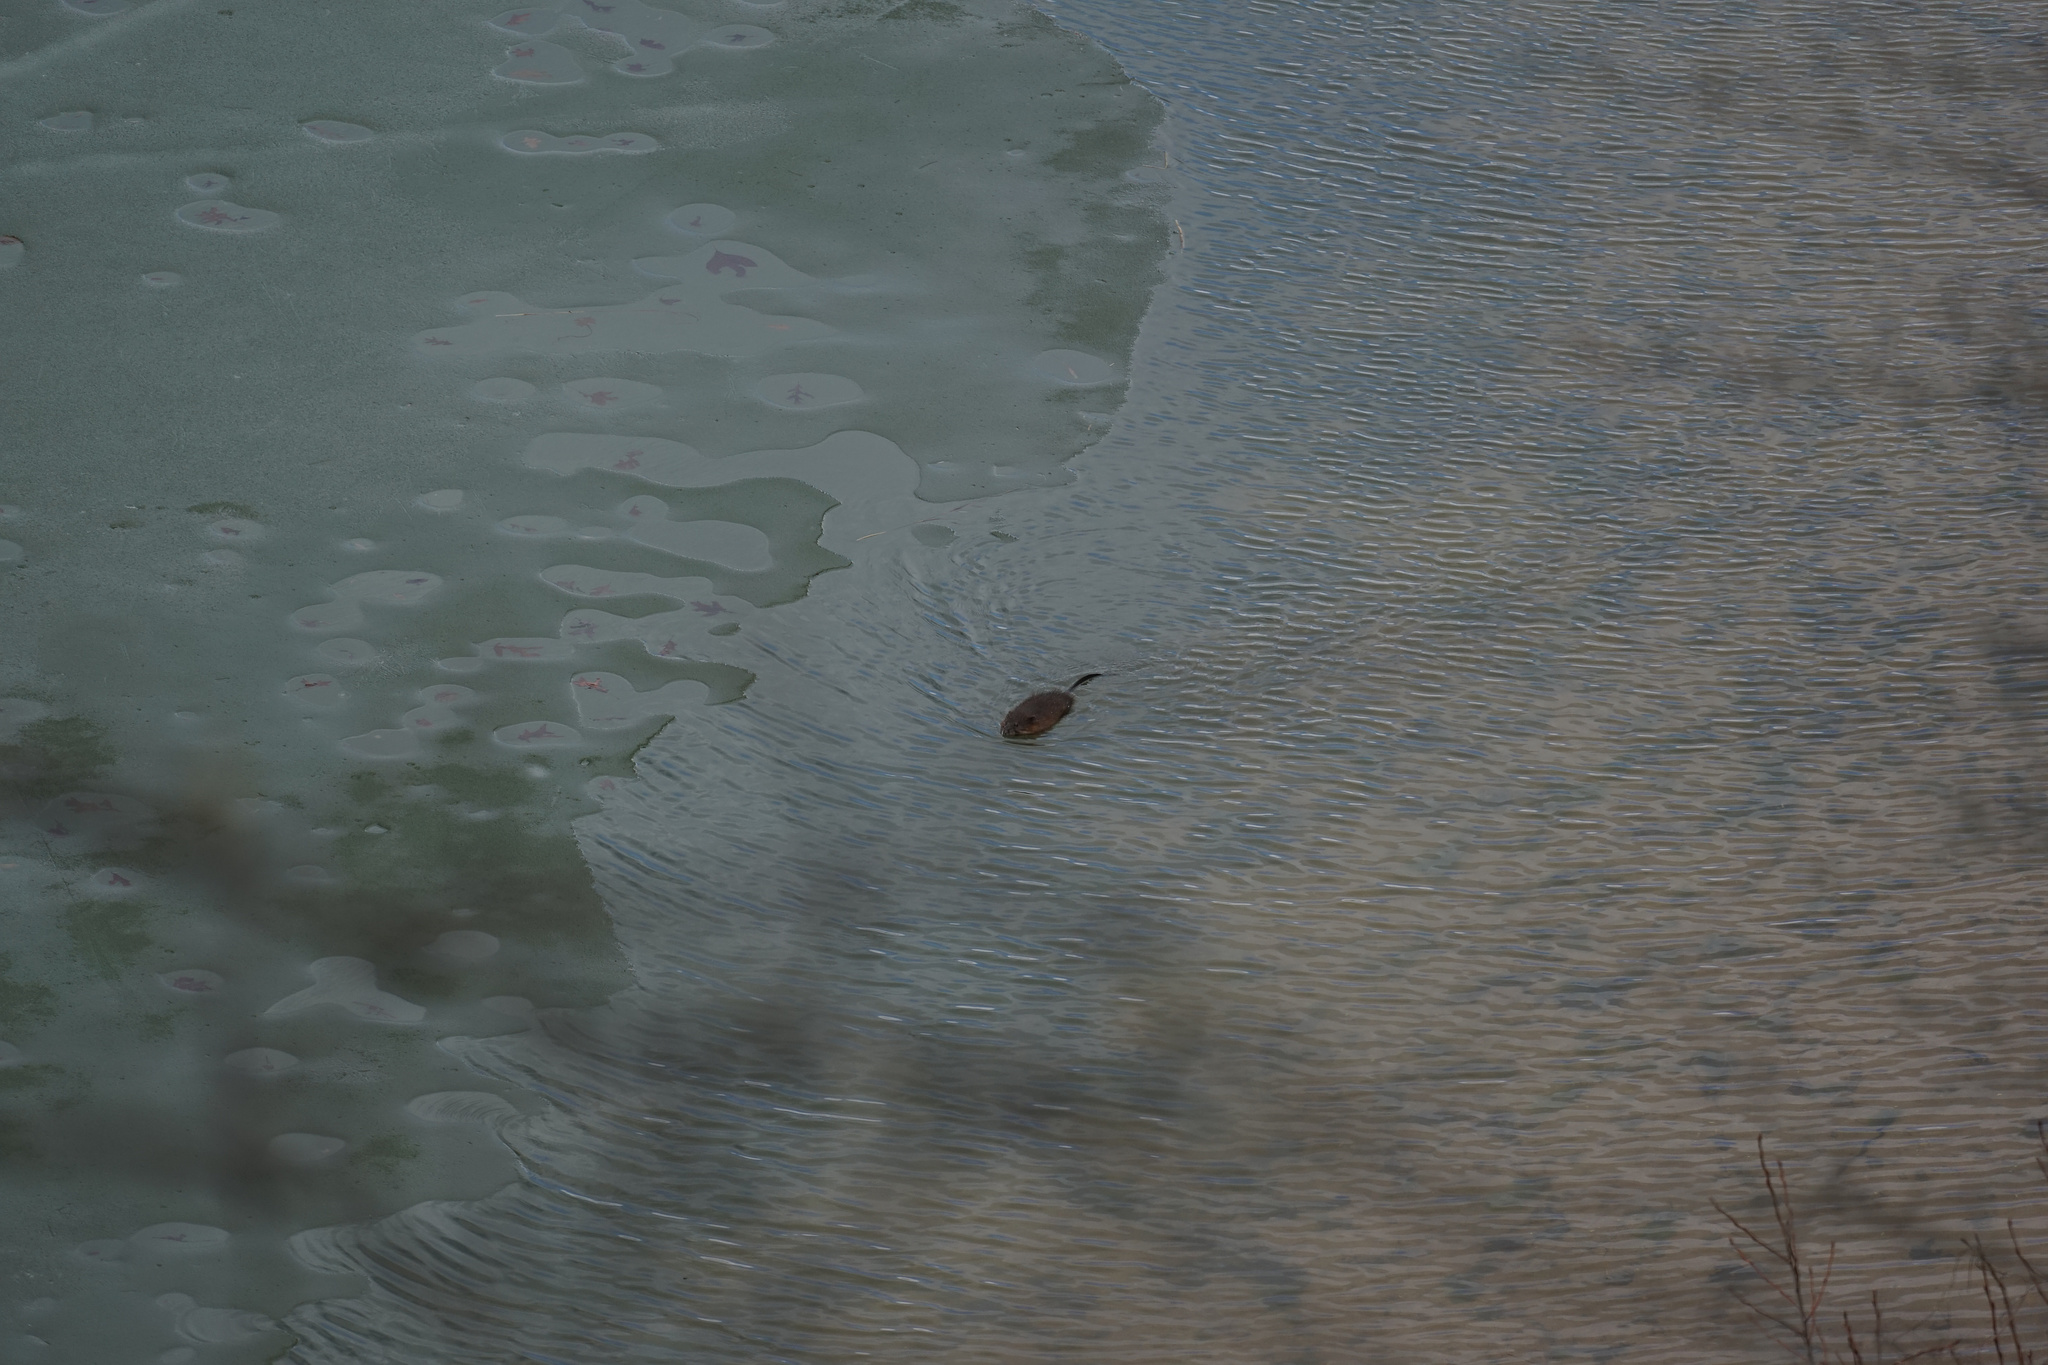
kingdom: Animalia
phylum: Chordata
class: Mammalia
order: Rodentia
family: Cricetidae
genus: Ondatra
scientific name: Ondatra zibethicus
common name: Muskrat
